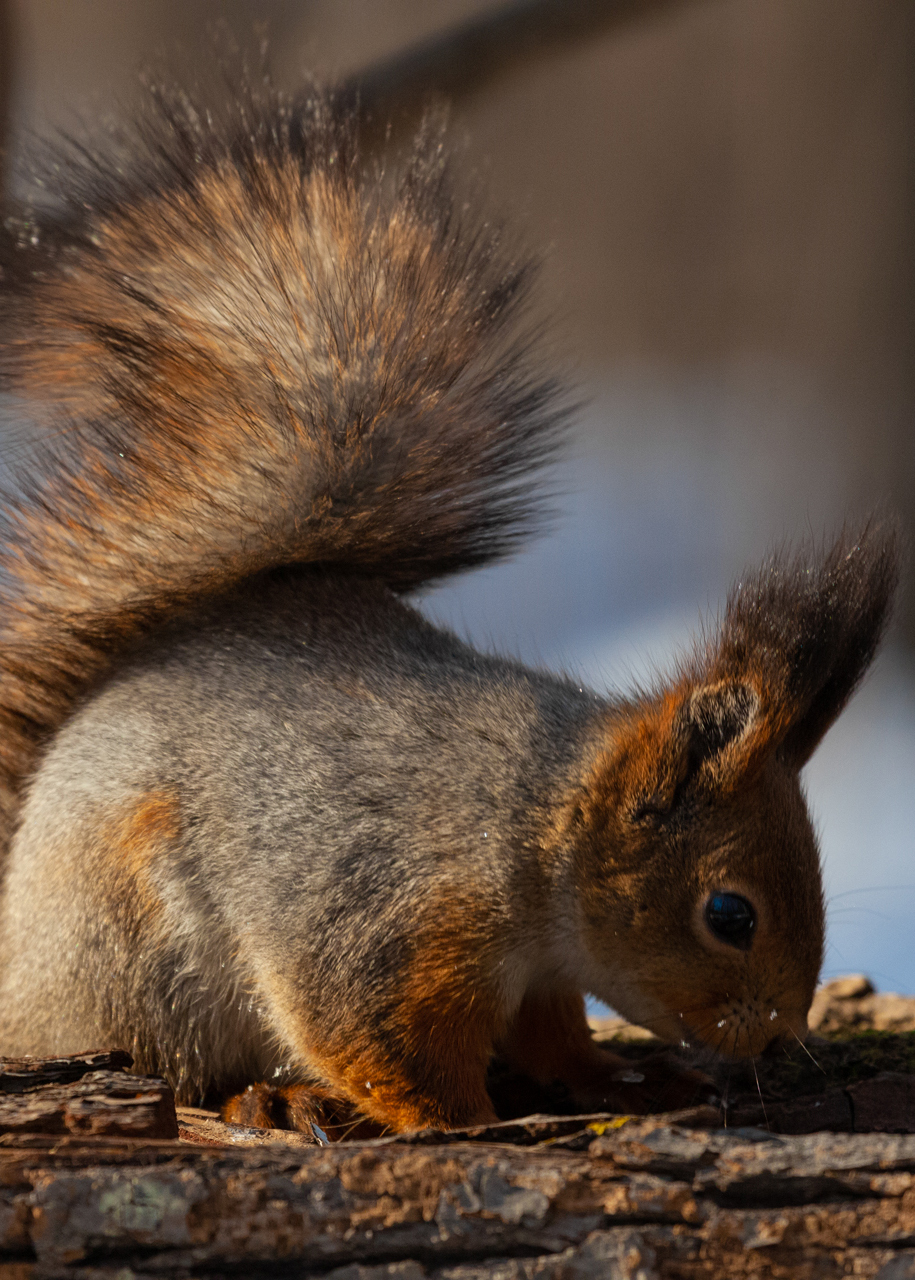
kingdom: Animalia
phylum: Chordata
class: Mammalia
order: Rodentia
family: Sciuridae
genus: Sciurus
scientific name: Sciurus vulgaris
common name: Eurasian red squirrel
